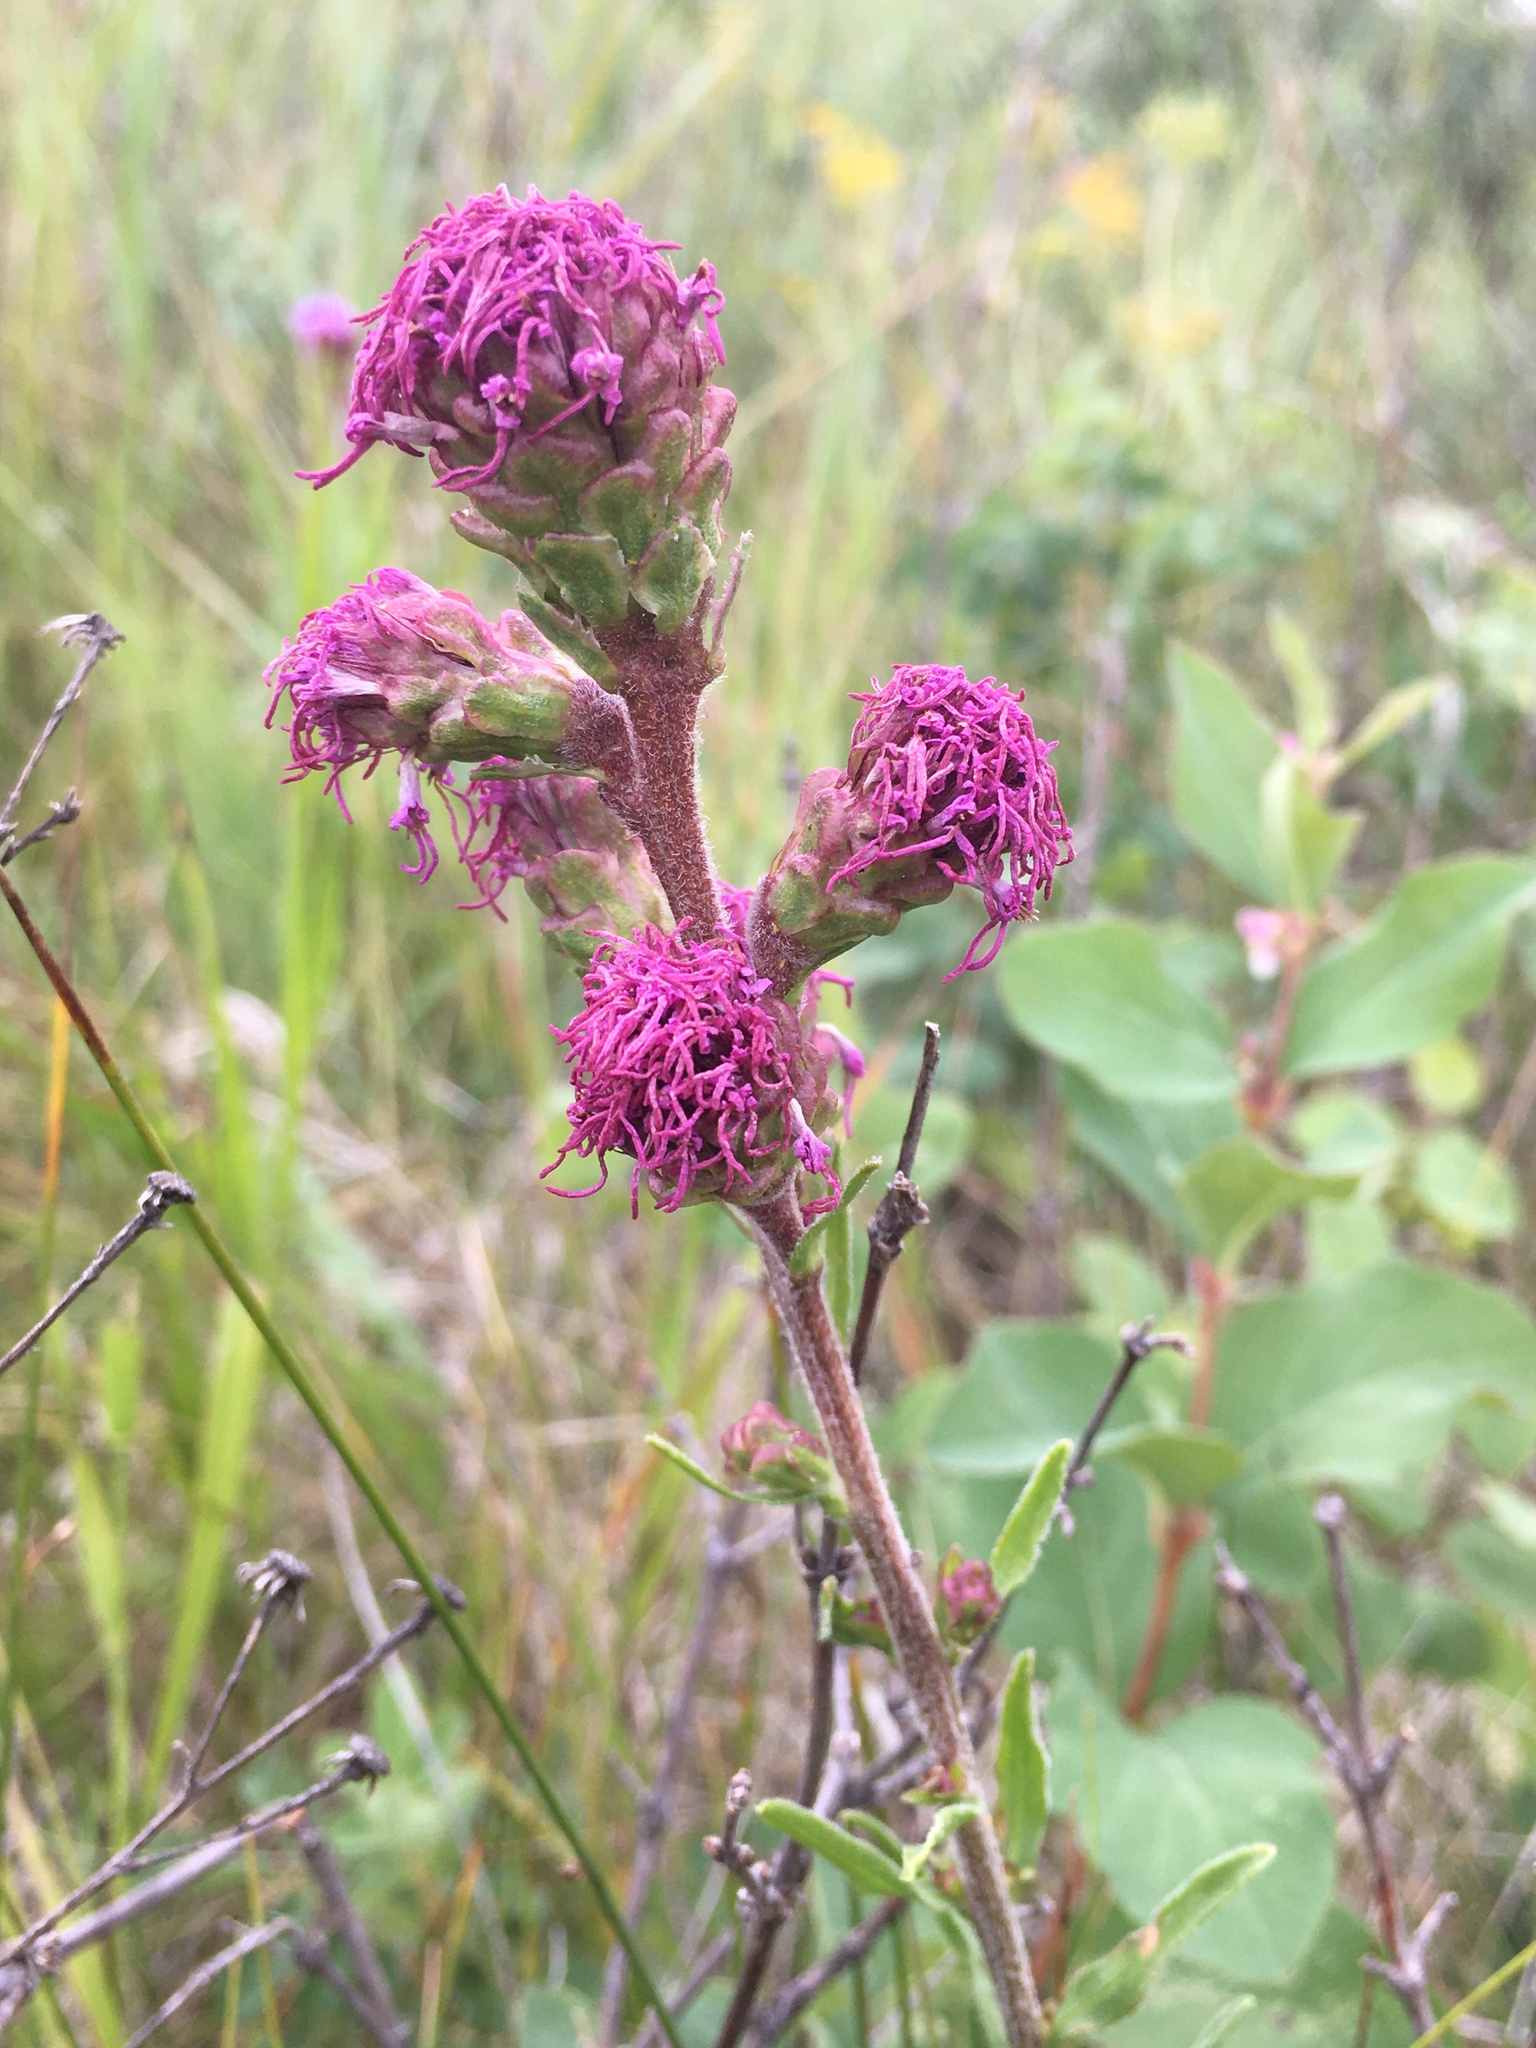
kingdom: Plantae
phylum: Tracheophyta
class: Magnoliopsida
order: Asterales
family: Asteraceae
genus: Liatris
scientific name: Liatris ligulistylis
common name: Northern plains gayfeather
